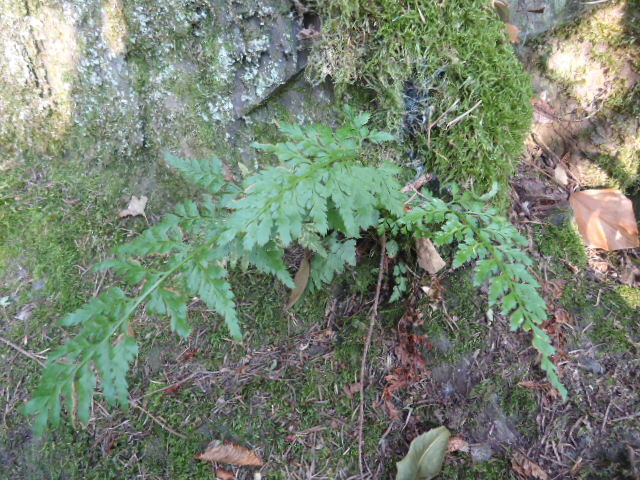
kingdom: Plantae
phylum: Tracheophyta
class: Polypodiopsida
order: Polypodiales
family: Aspleniaceae
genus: Asplenium
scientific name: Asplenium adiantum-nigrum
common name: Black spleenwort
